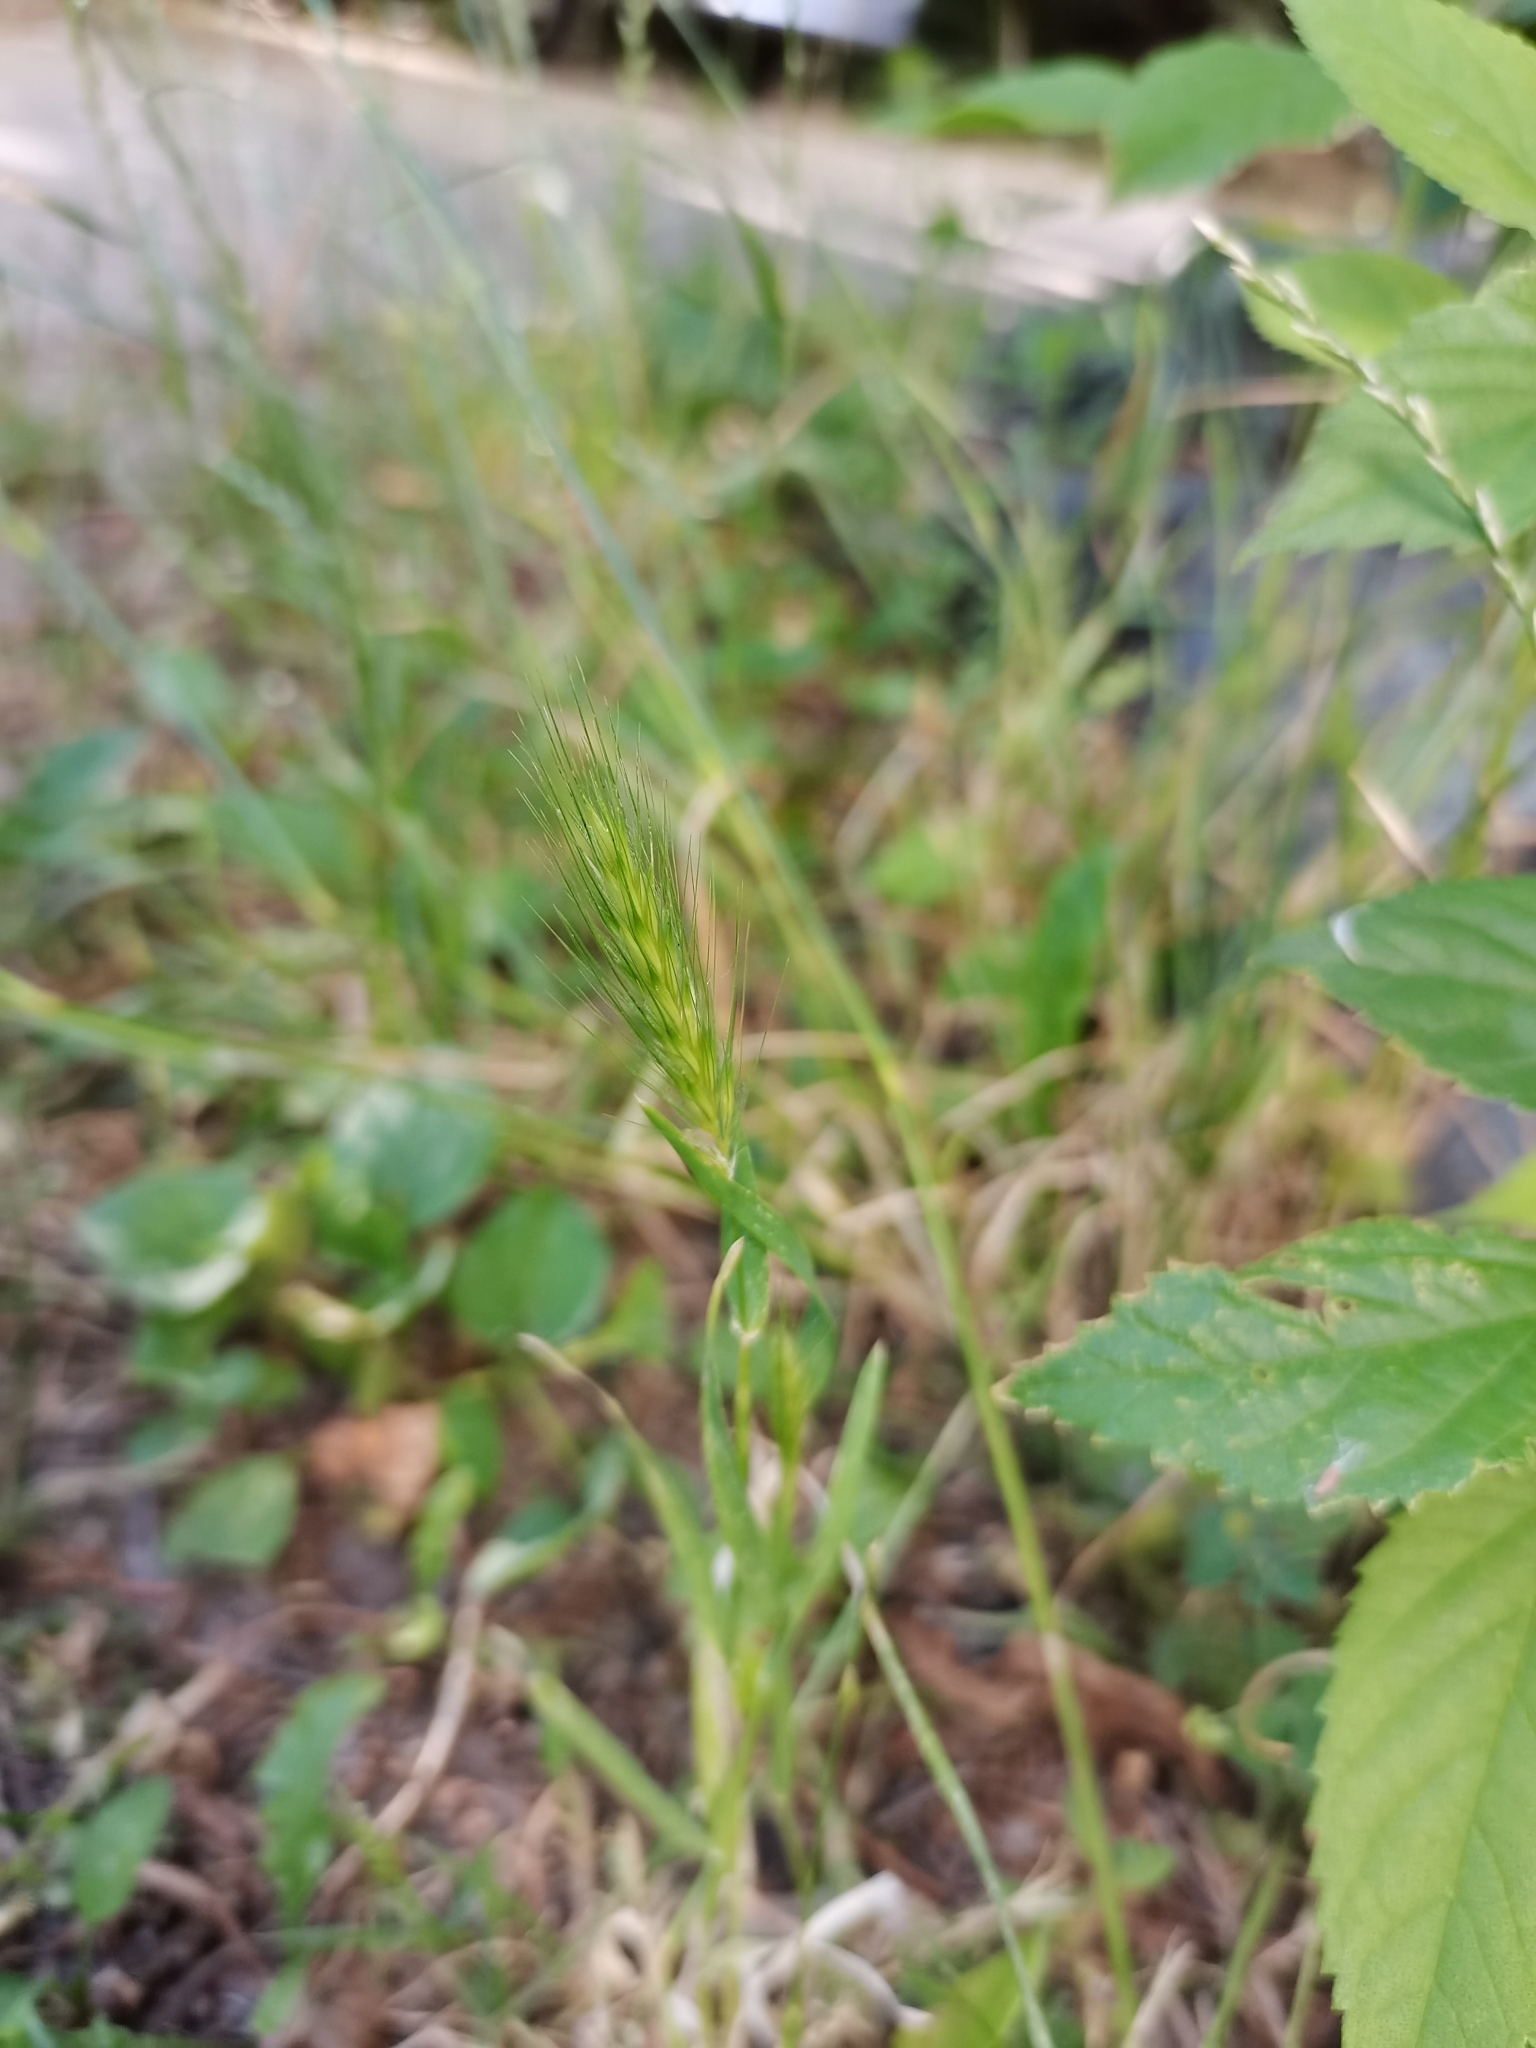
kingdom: Plantae
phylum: Tracheophyta
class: Liliopsida
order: Poales
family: Poaceae
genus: Hordeum
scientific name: Hordeum murinum
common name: Wall barley
